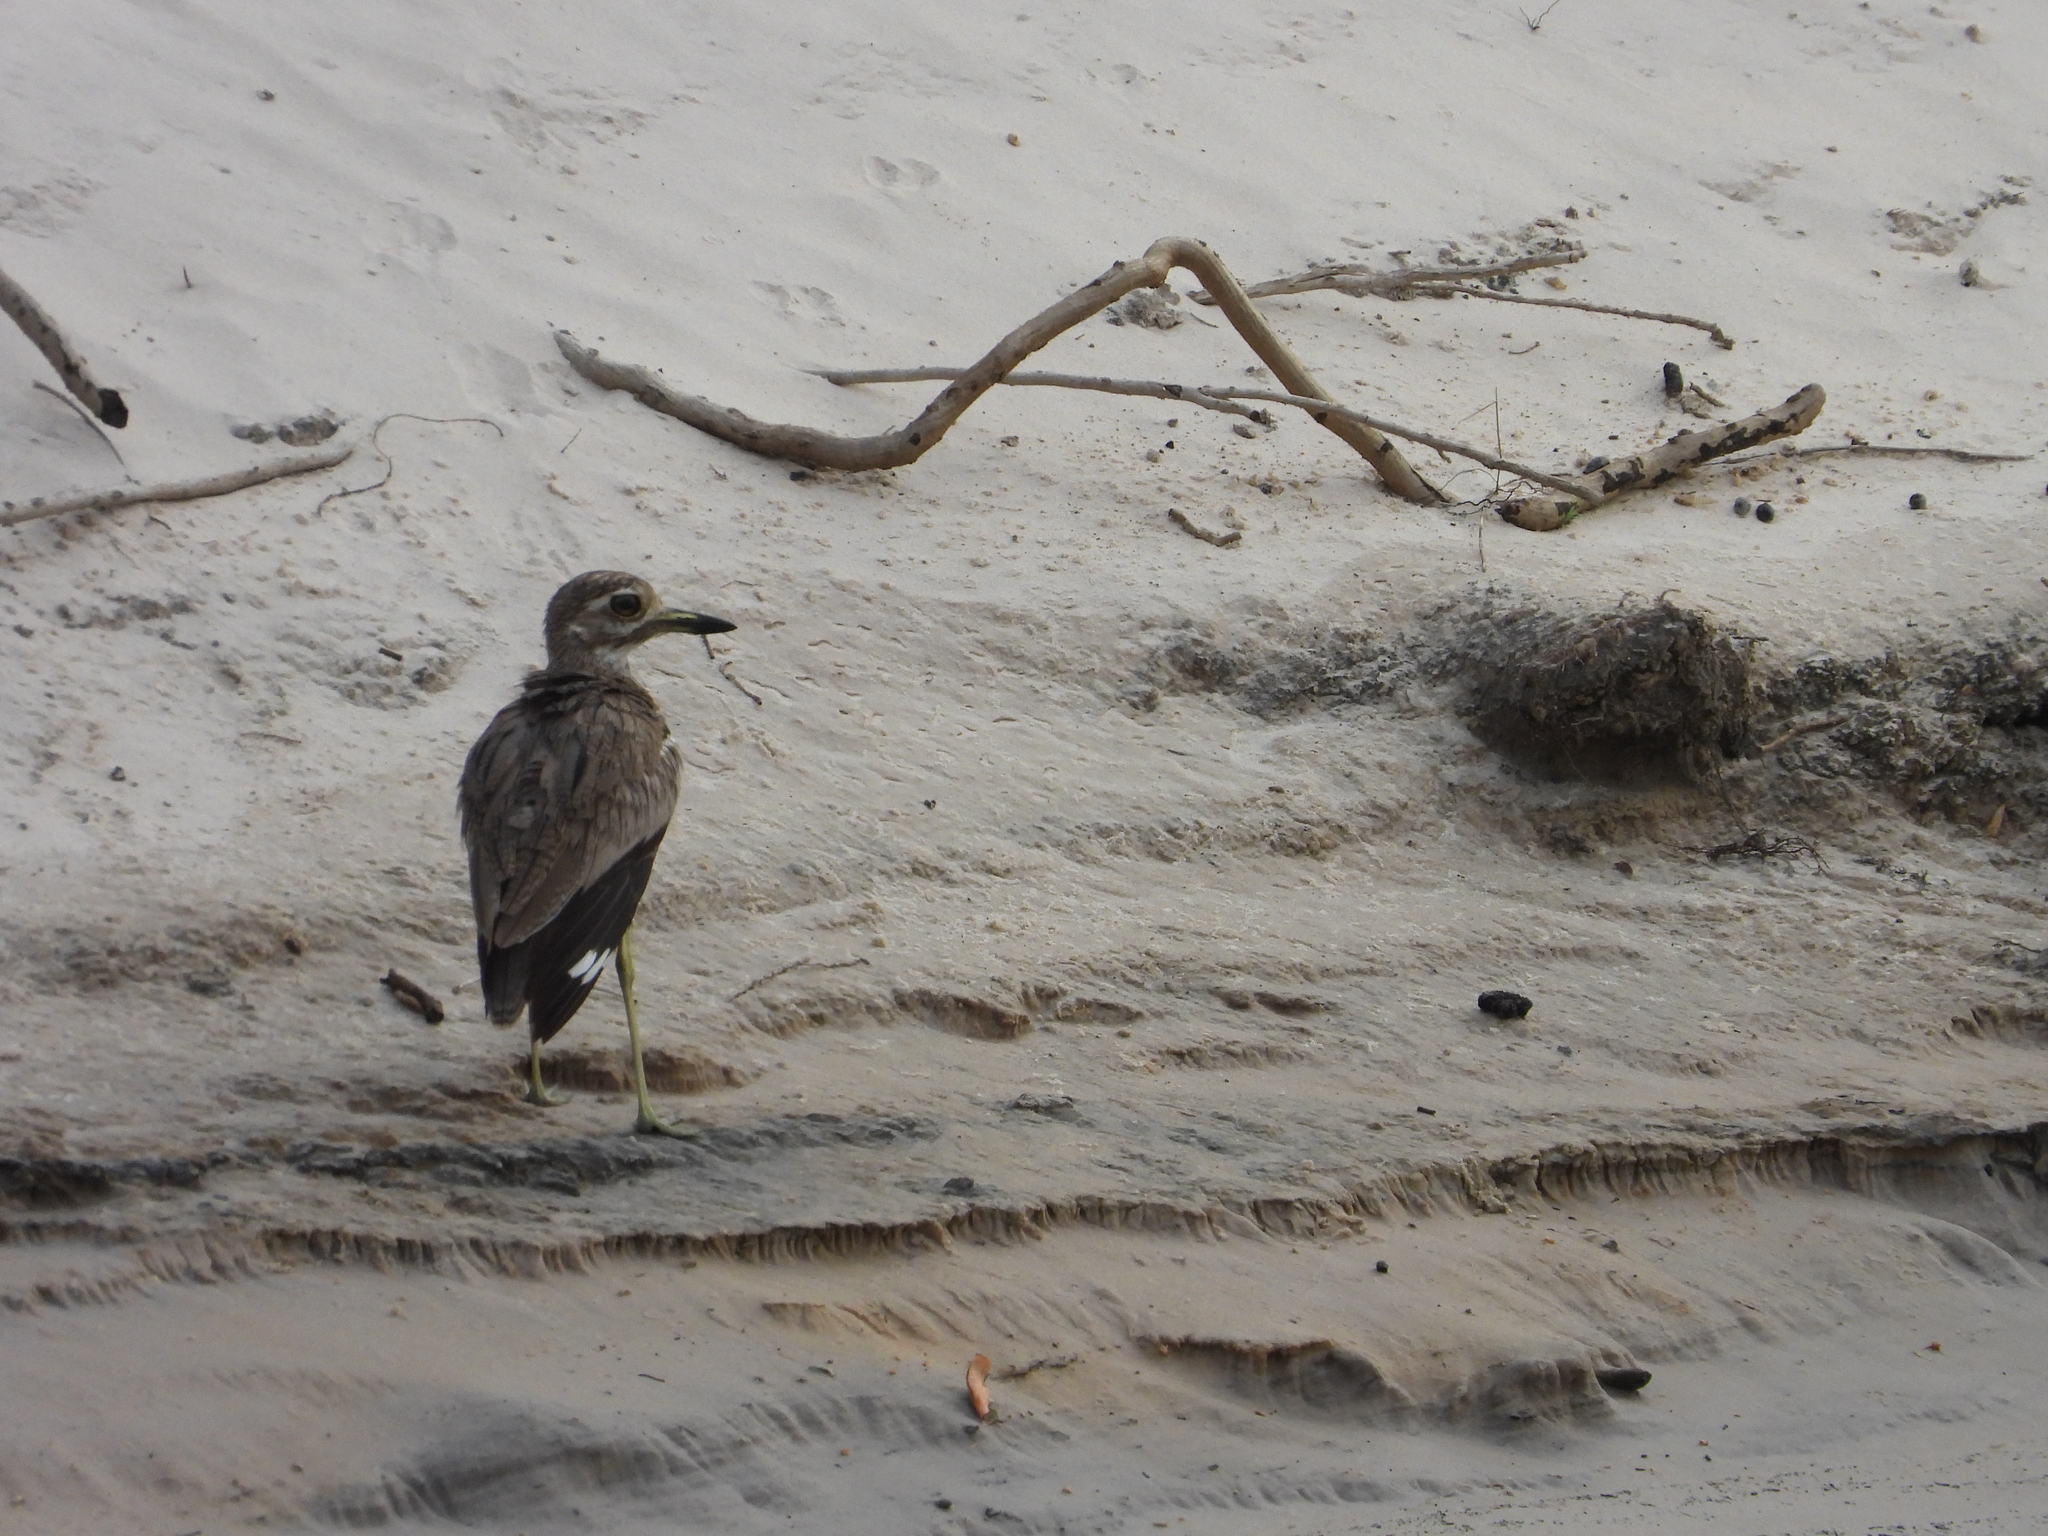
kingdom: Animalia
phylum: Chordata
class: Aves
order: Charadriiformes
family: Burhinidae
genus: Burhinus
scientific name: Burhinus vermiculatus
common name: Water thick-knee
